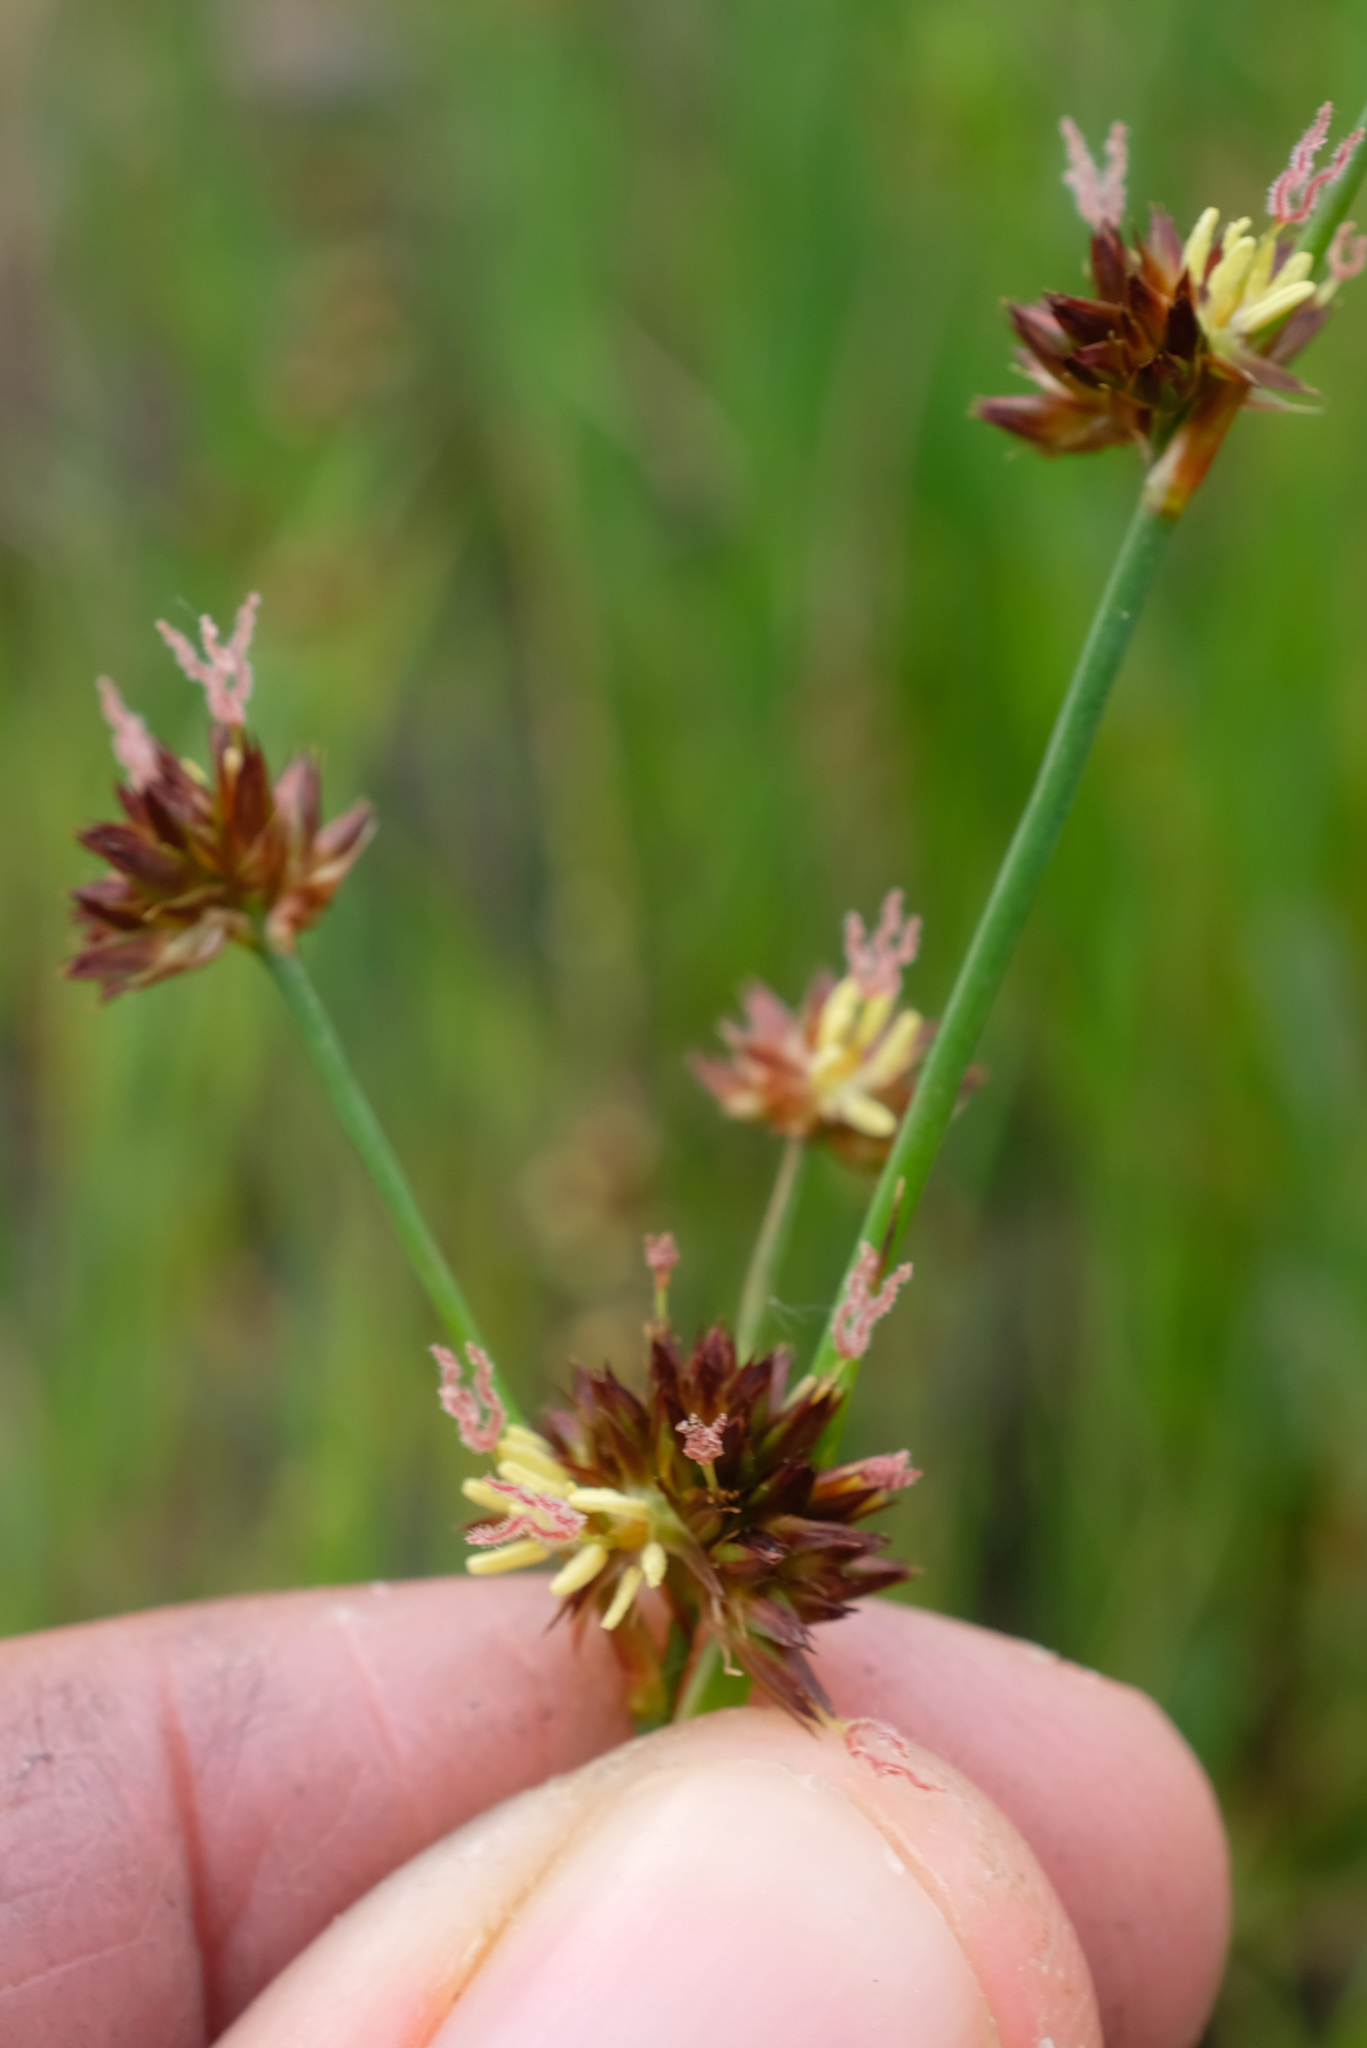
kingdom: Plantae
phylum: Tracheophyta
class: Liliopsida
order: Poales
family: Juncaceae
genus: Juncus
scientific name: Juncus xiphioides
